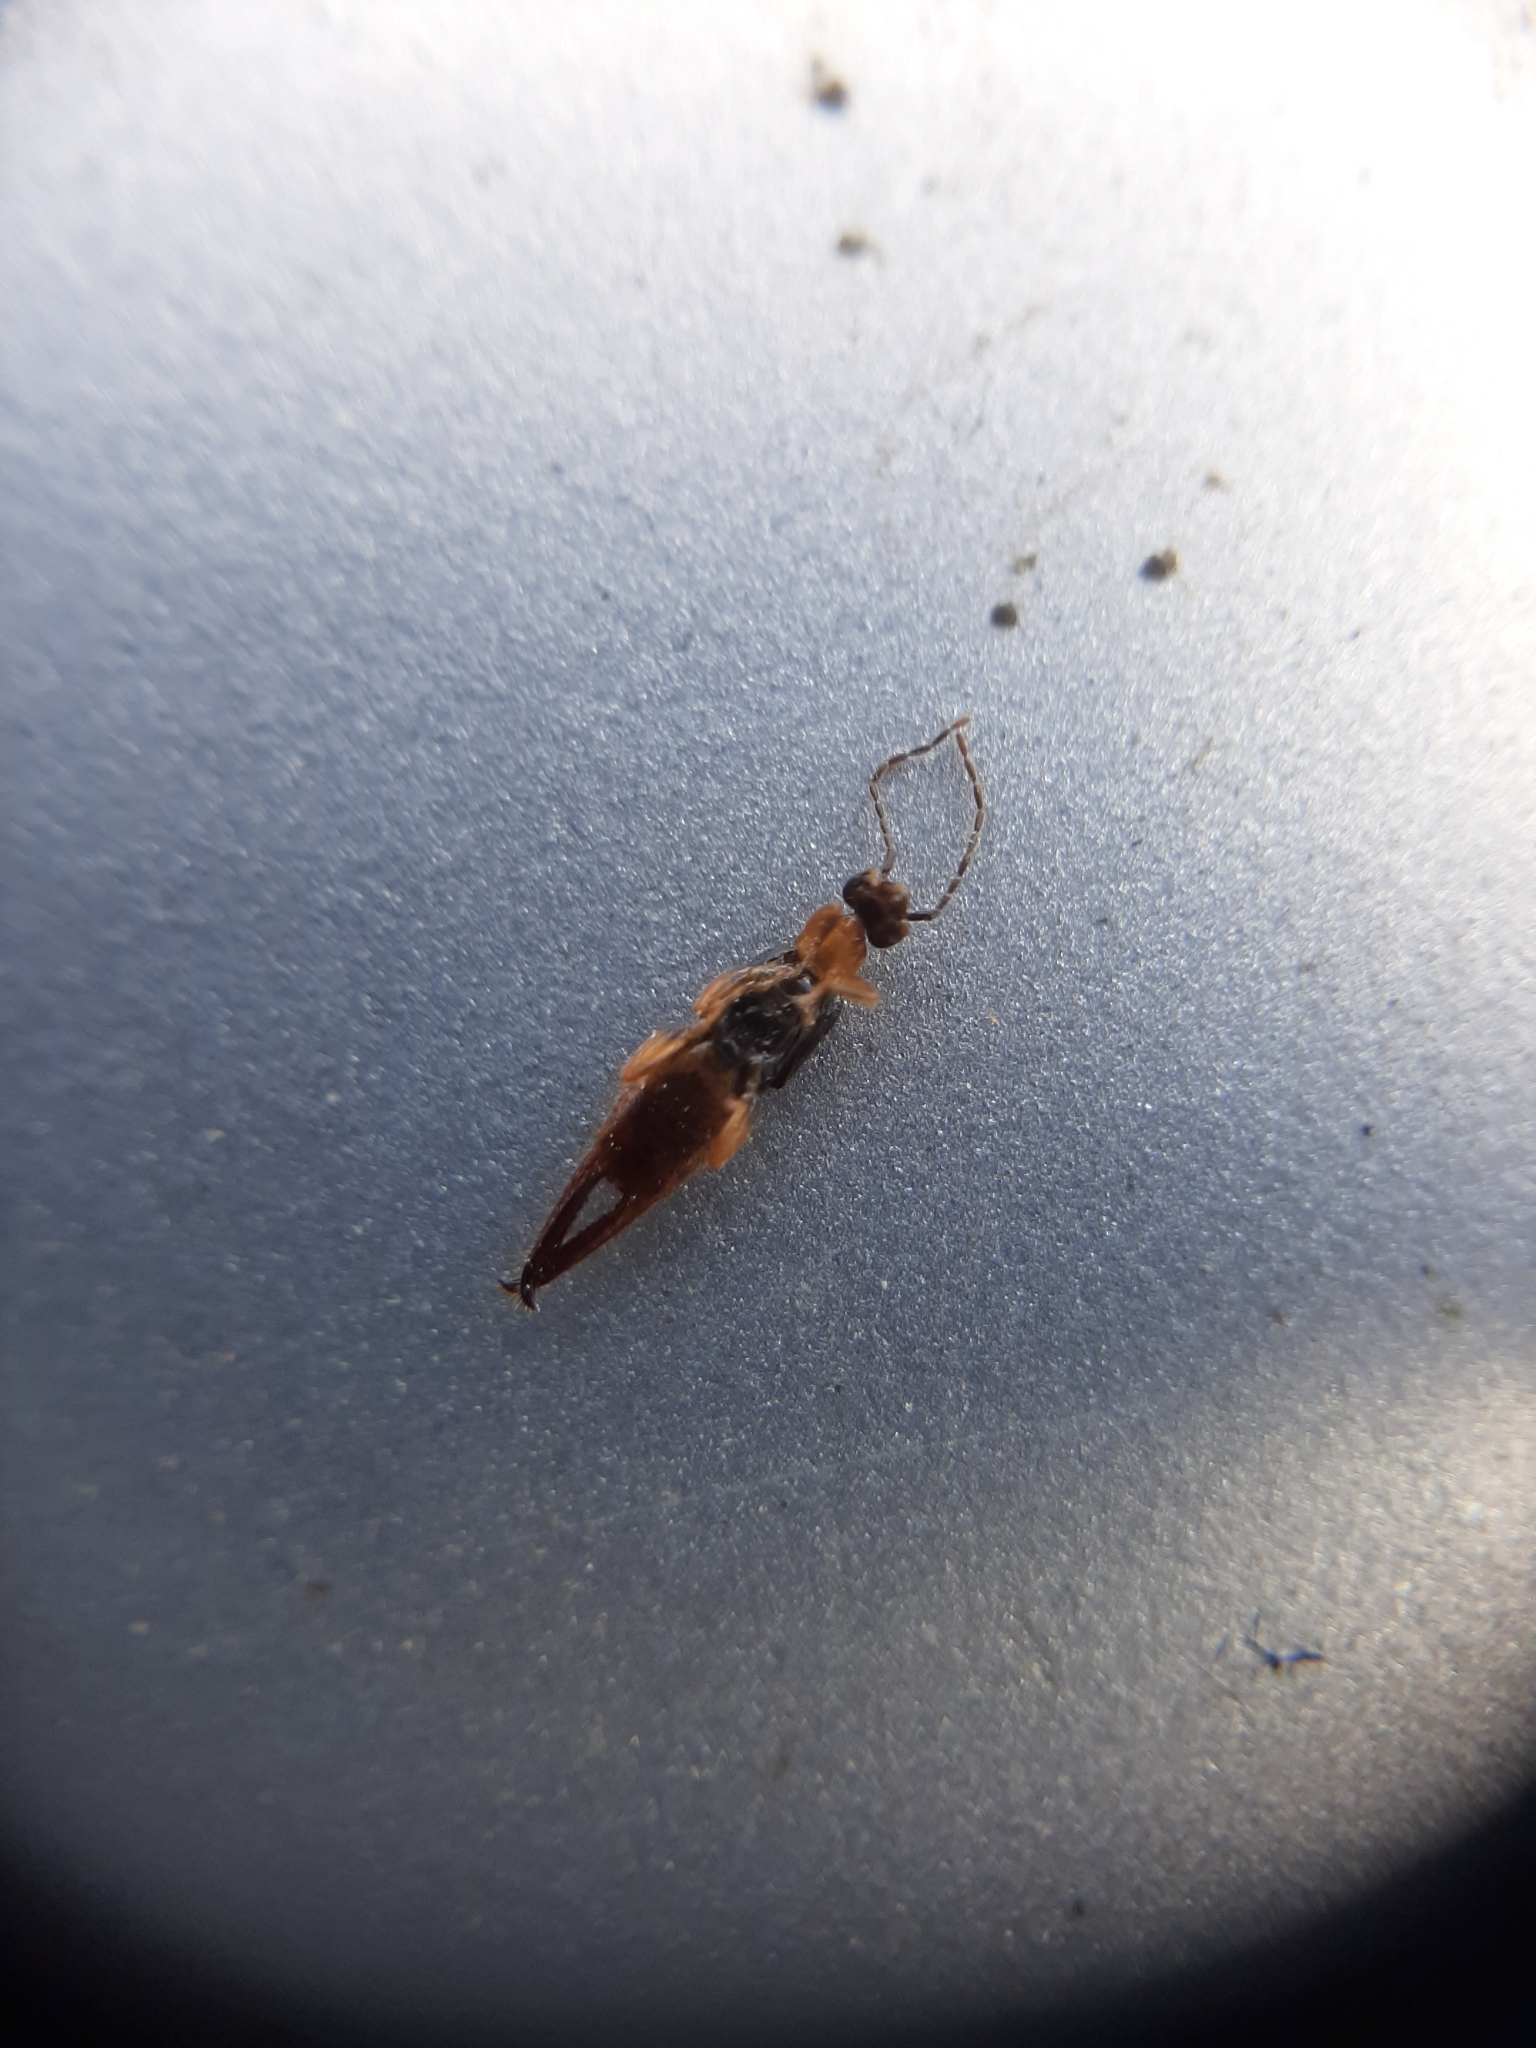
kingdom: Animalia
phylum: Arthropoda
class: Insecta
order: Dermaptera
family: Spongiphoridae
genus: Paraspania
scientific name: Paraspania brunneri
